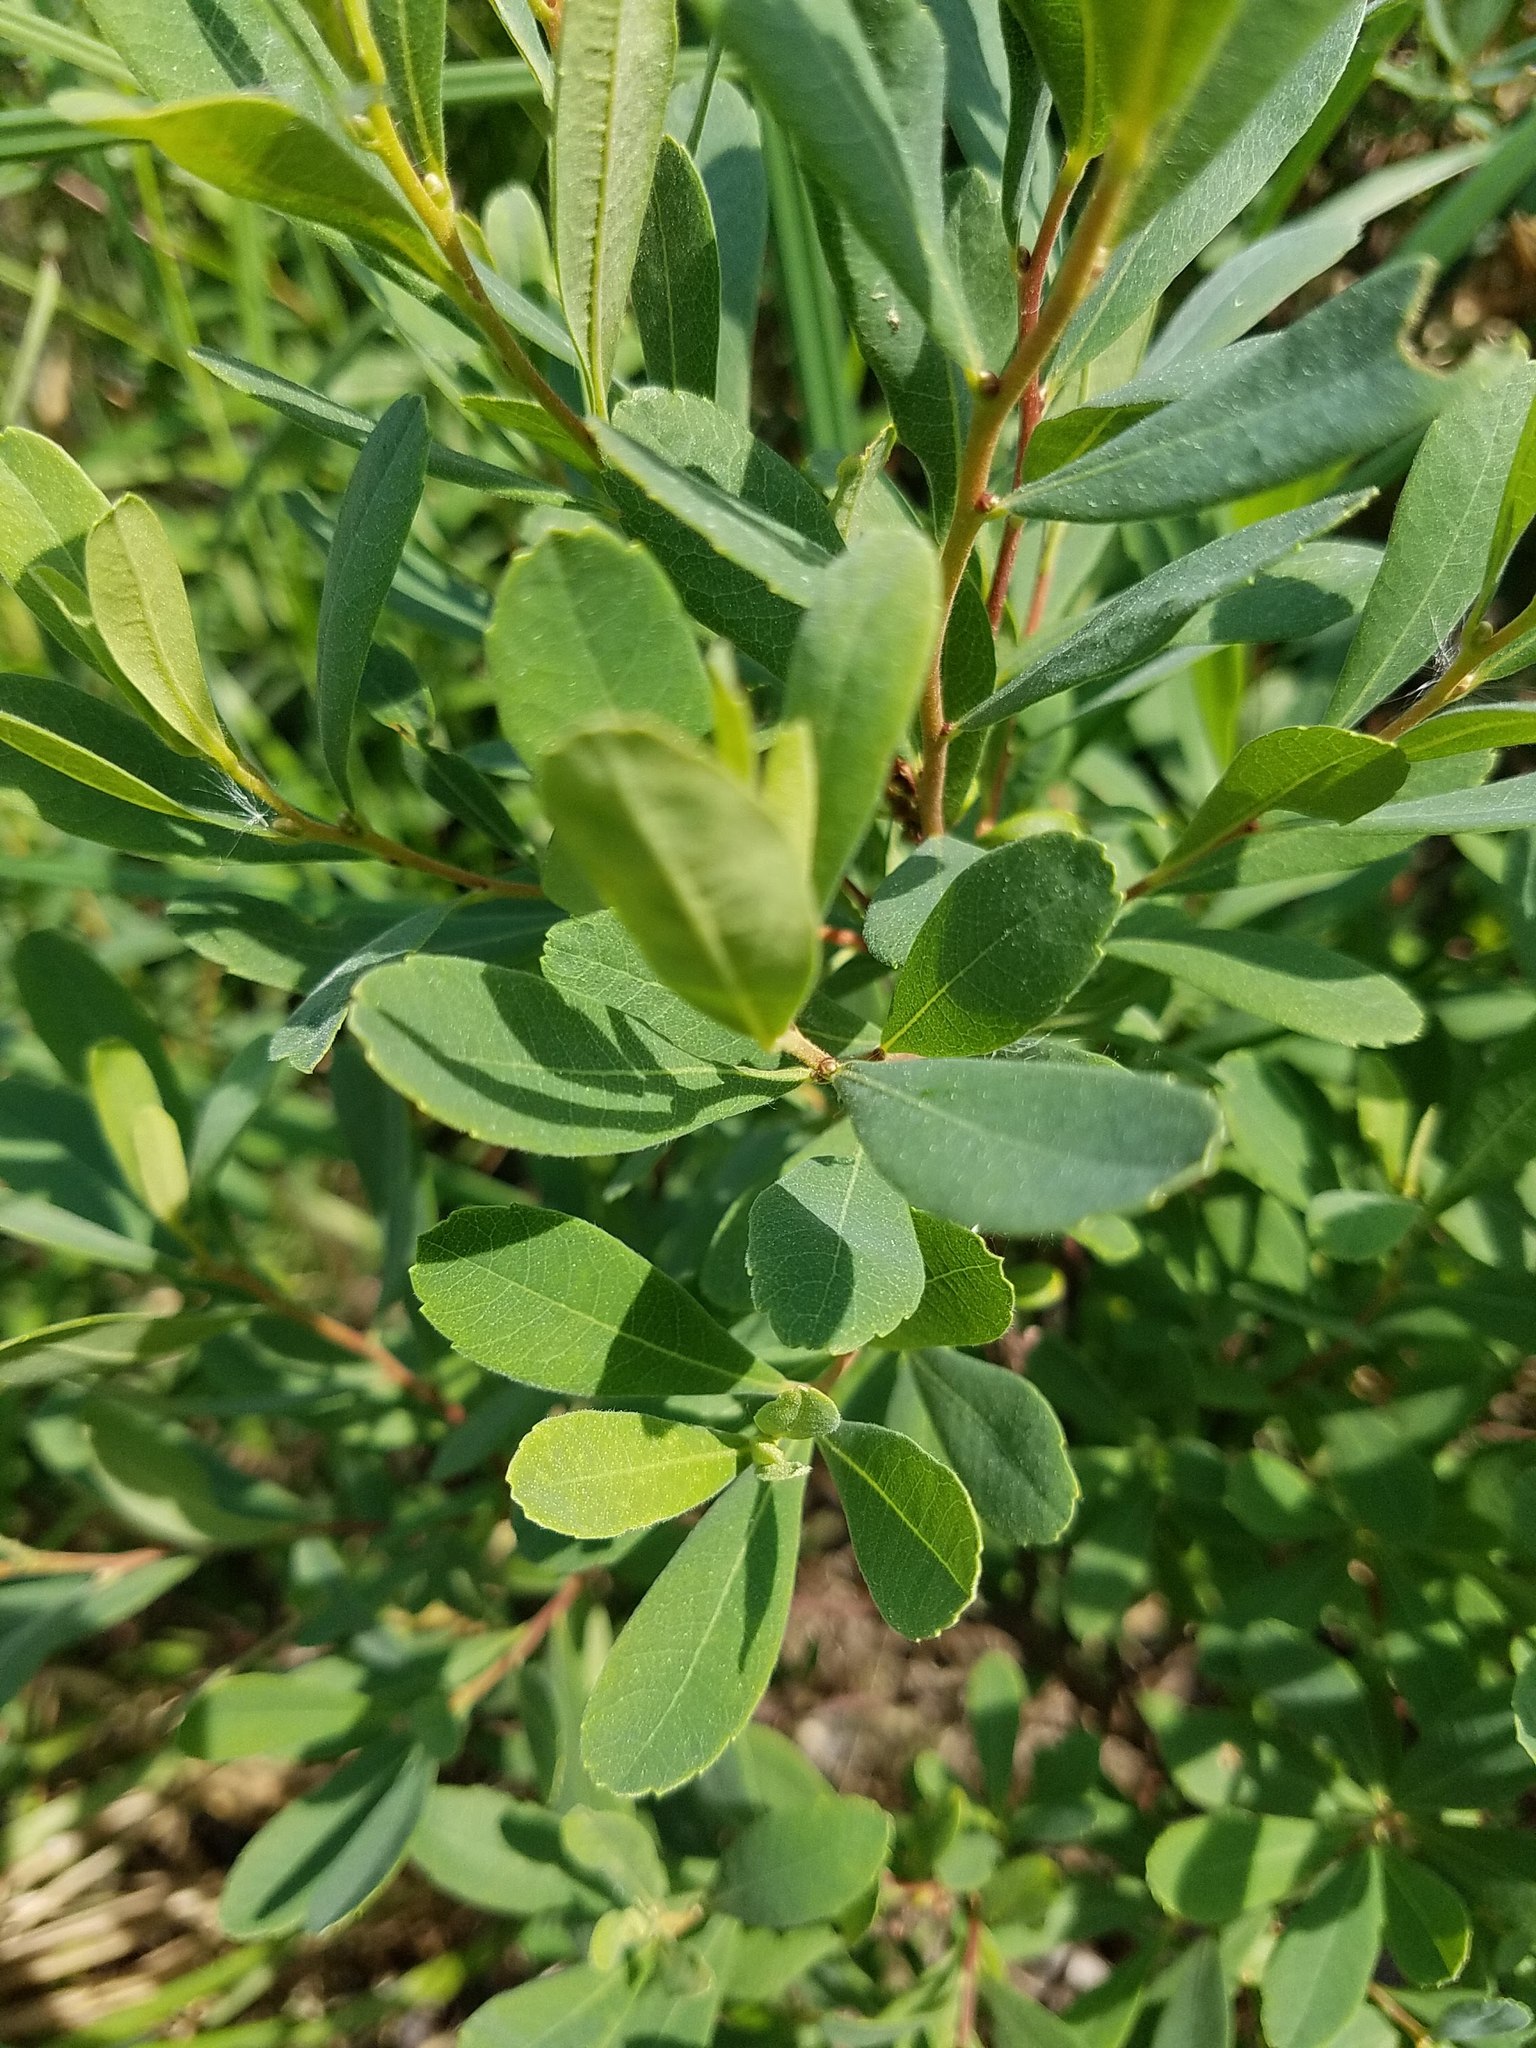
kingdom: Plantae
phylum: Tracheophyta
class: Magnoliopsida
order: Fagales
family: Myricaceae
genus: Myrica
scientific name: Myrica gale
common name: Sweet gale
